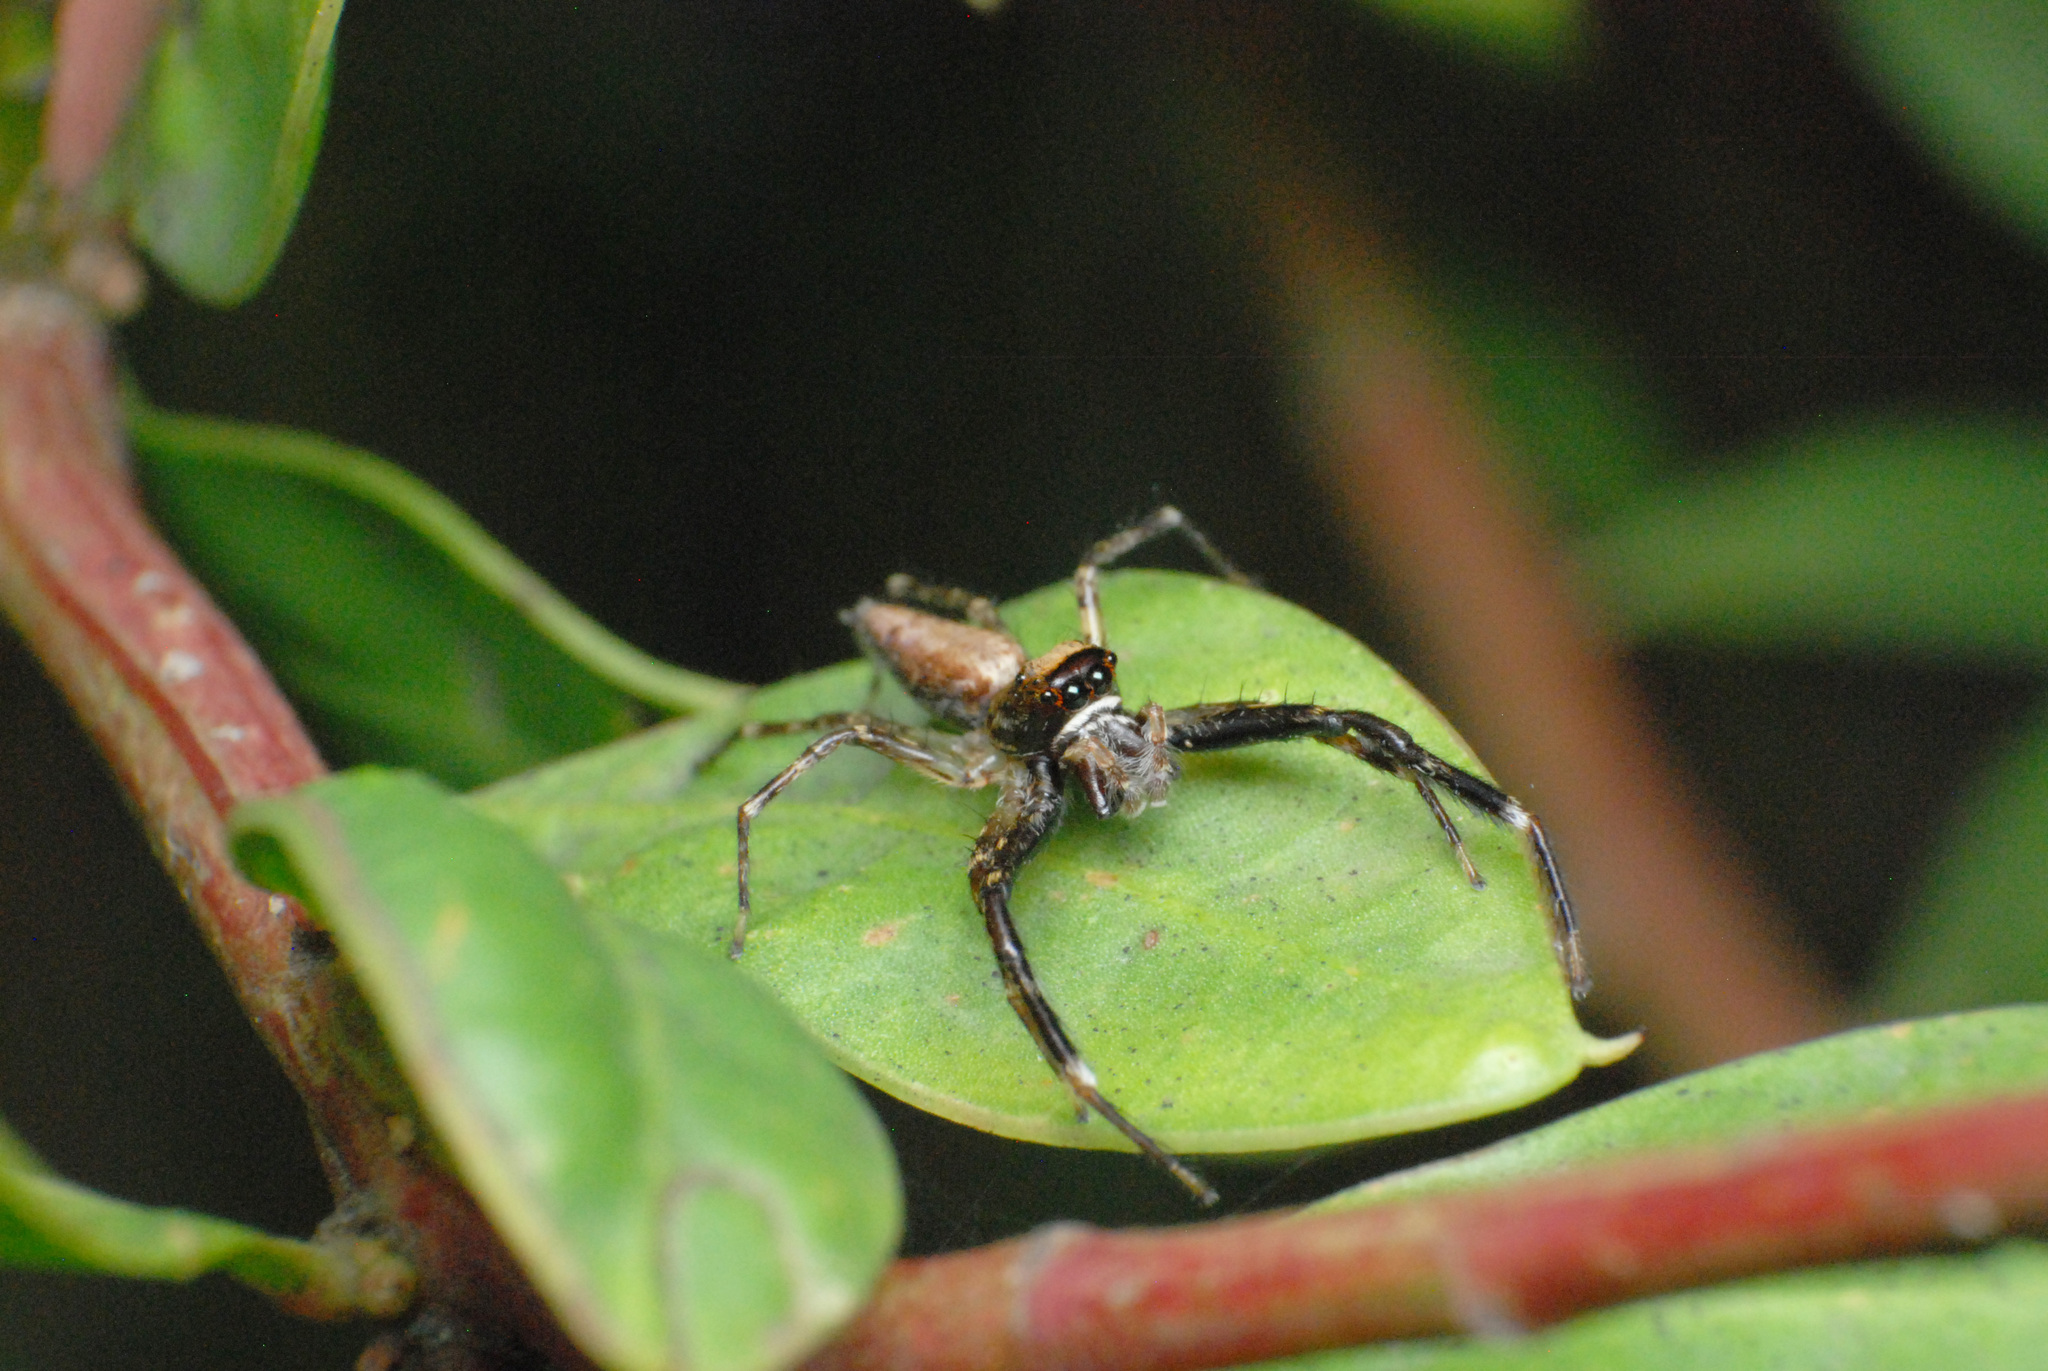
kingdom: Animalia
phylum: Arthropoda
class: Arachnida
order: Araneae
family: Salticidae
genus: Helpis
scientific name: Helpis minitabunda
